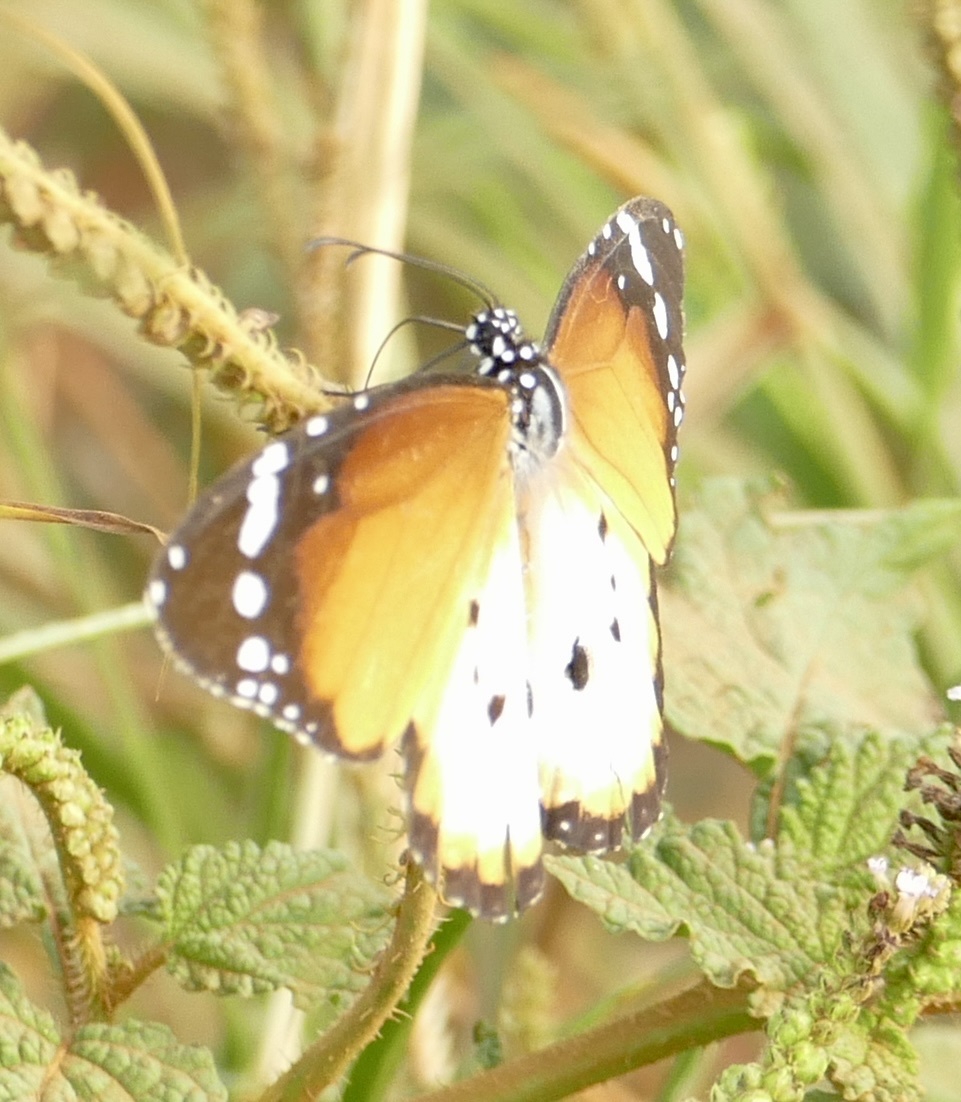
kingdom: Animalia
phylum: Arthropoda
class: Insecta
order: Lepidoptera
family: Nymphalidae
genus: Danaus
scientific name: Danaus chrysippus
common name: Plain tiger
